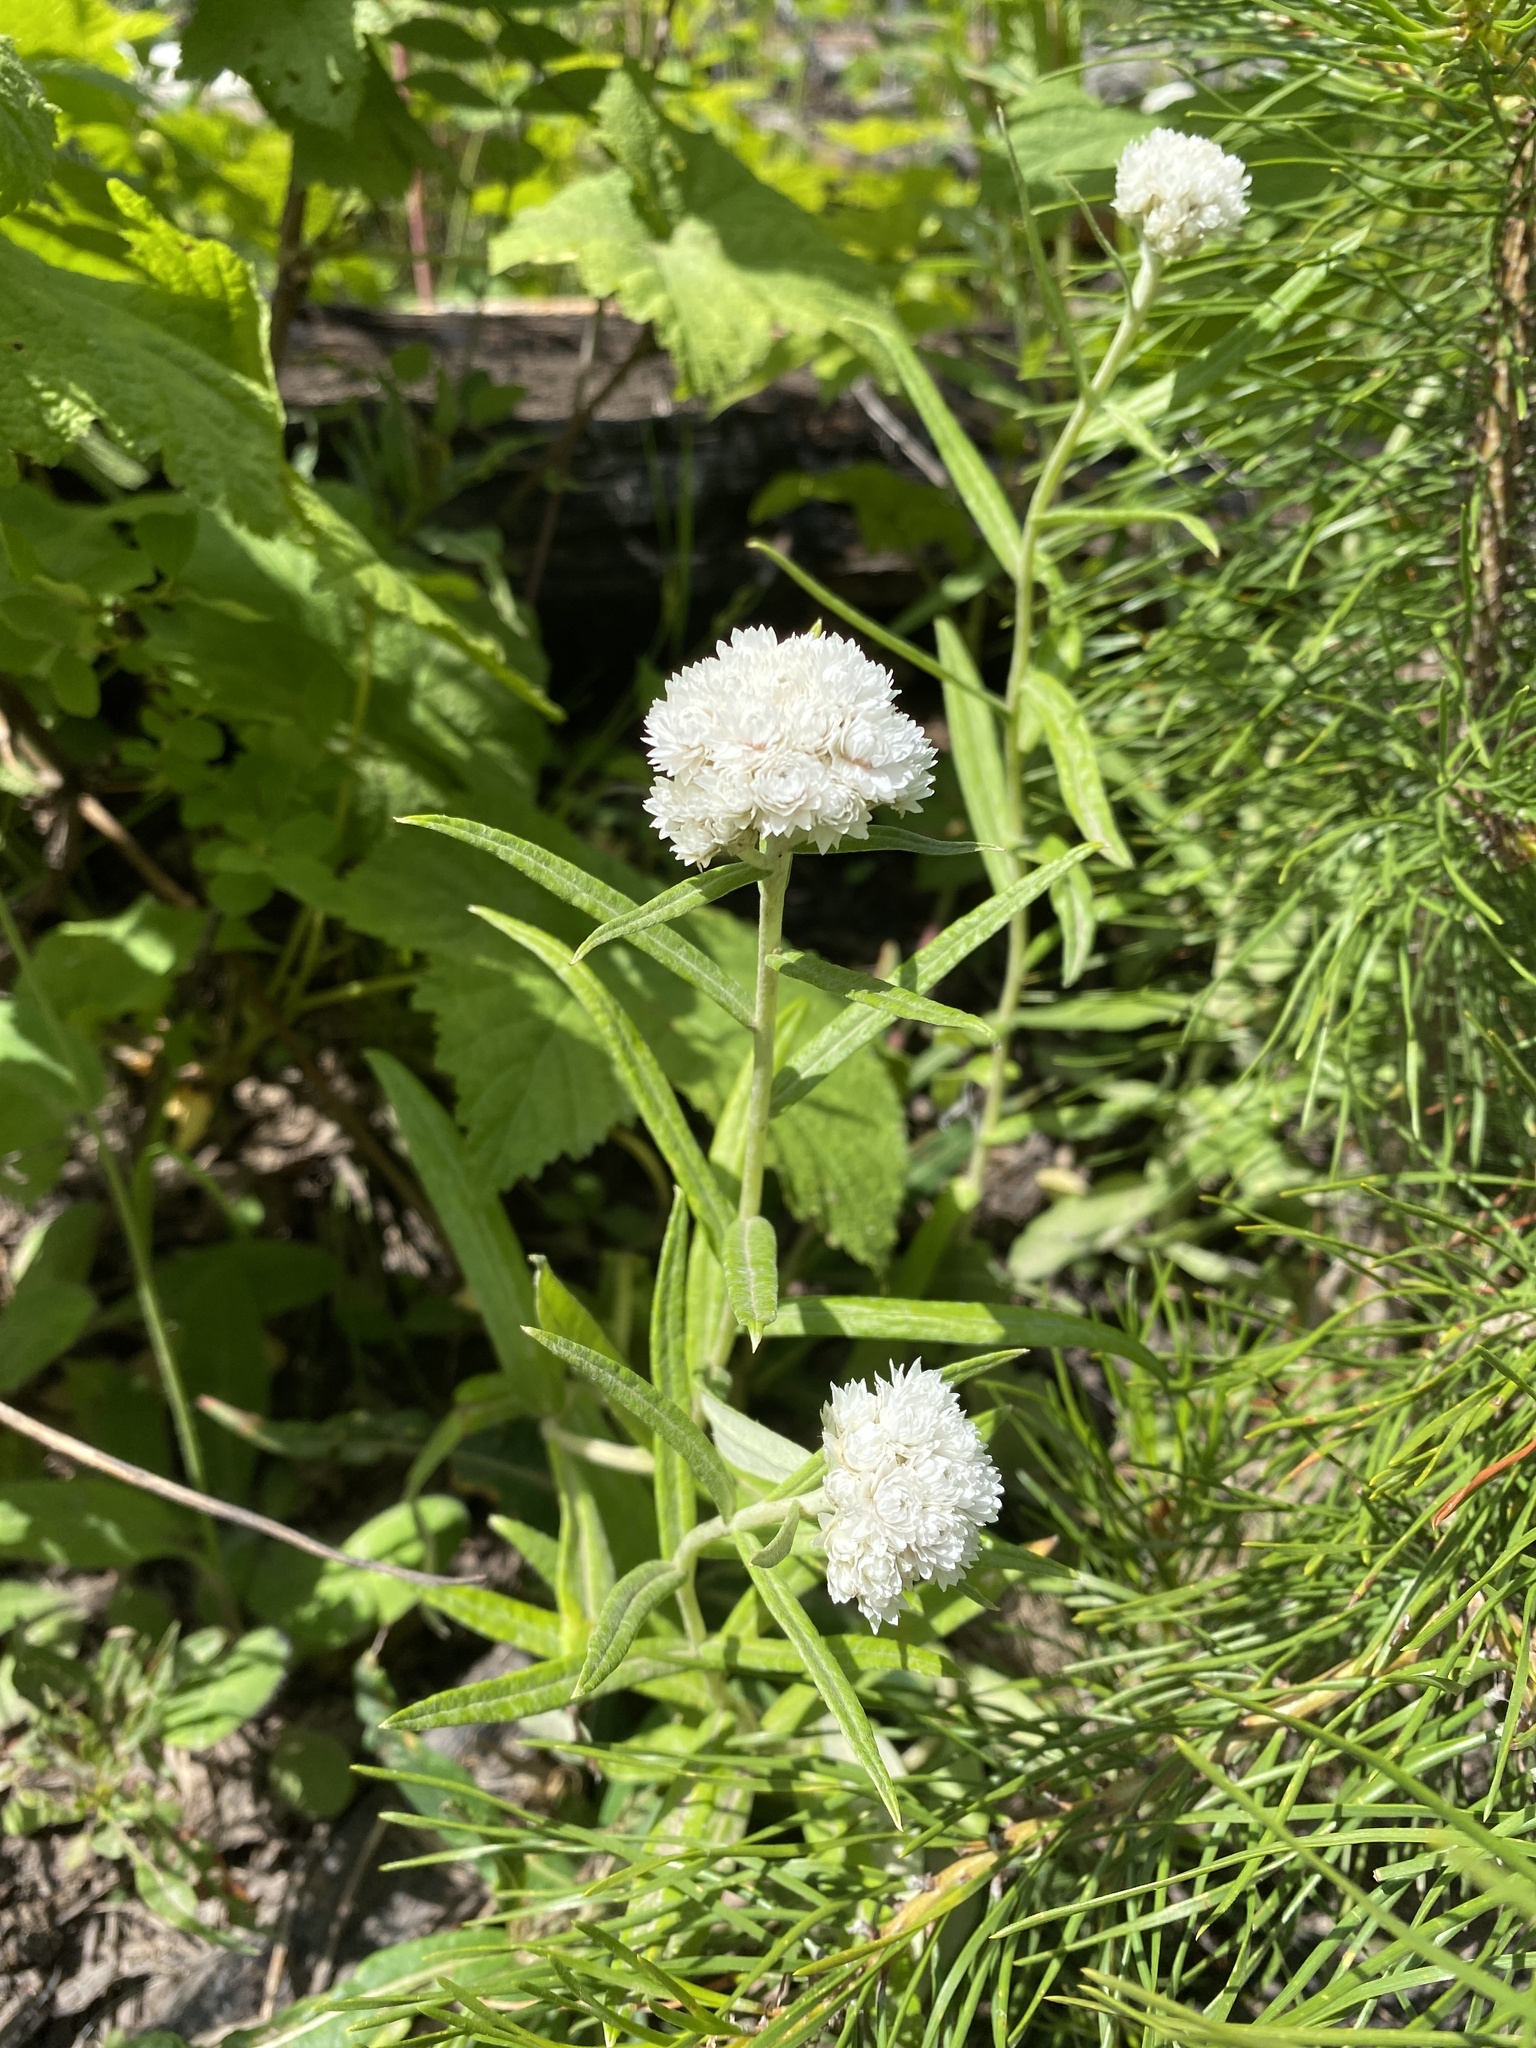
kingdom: Plantae
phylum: Tracheophyta
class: Magnoliopsida
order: Asterales
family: Asteraceae
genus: Anaphalis
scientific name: Anaphalis margaritacea
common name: Pearly everlasting
